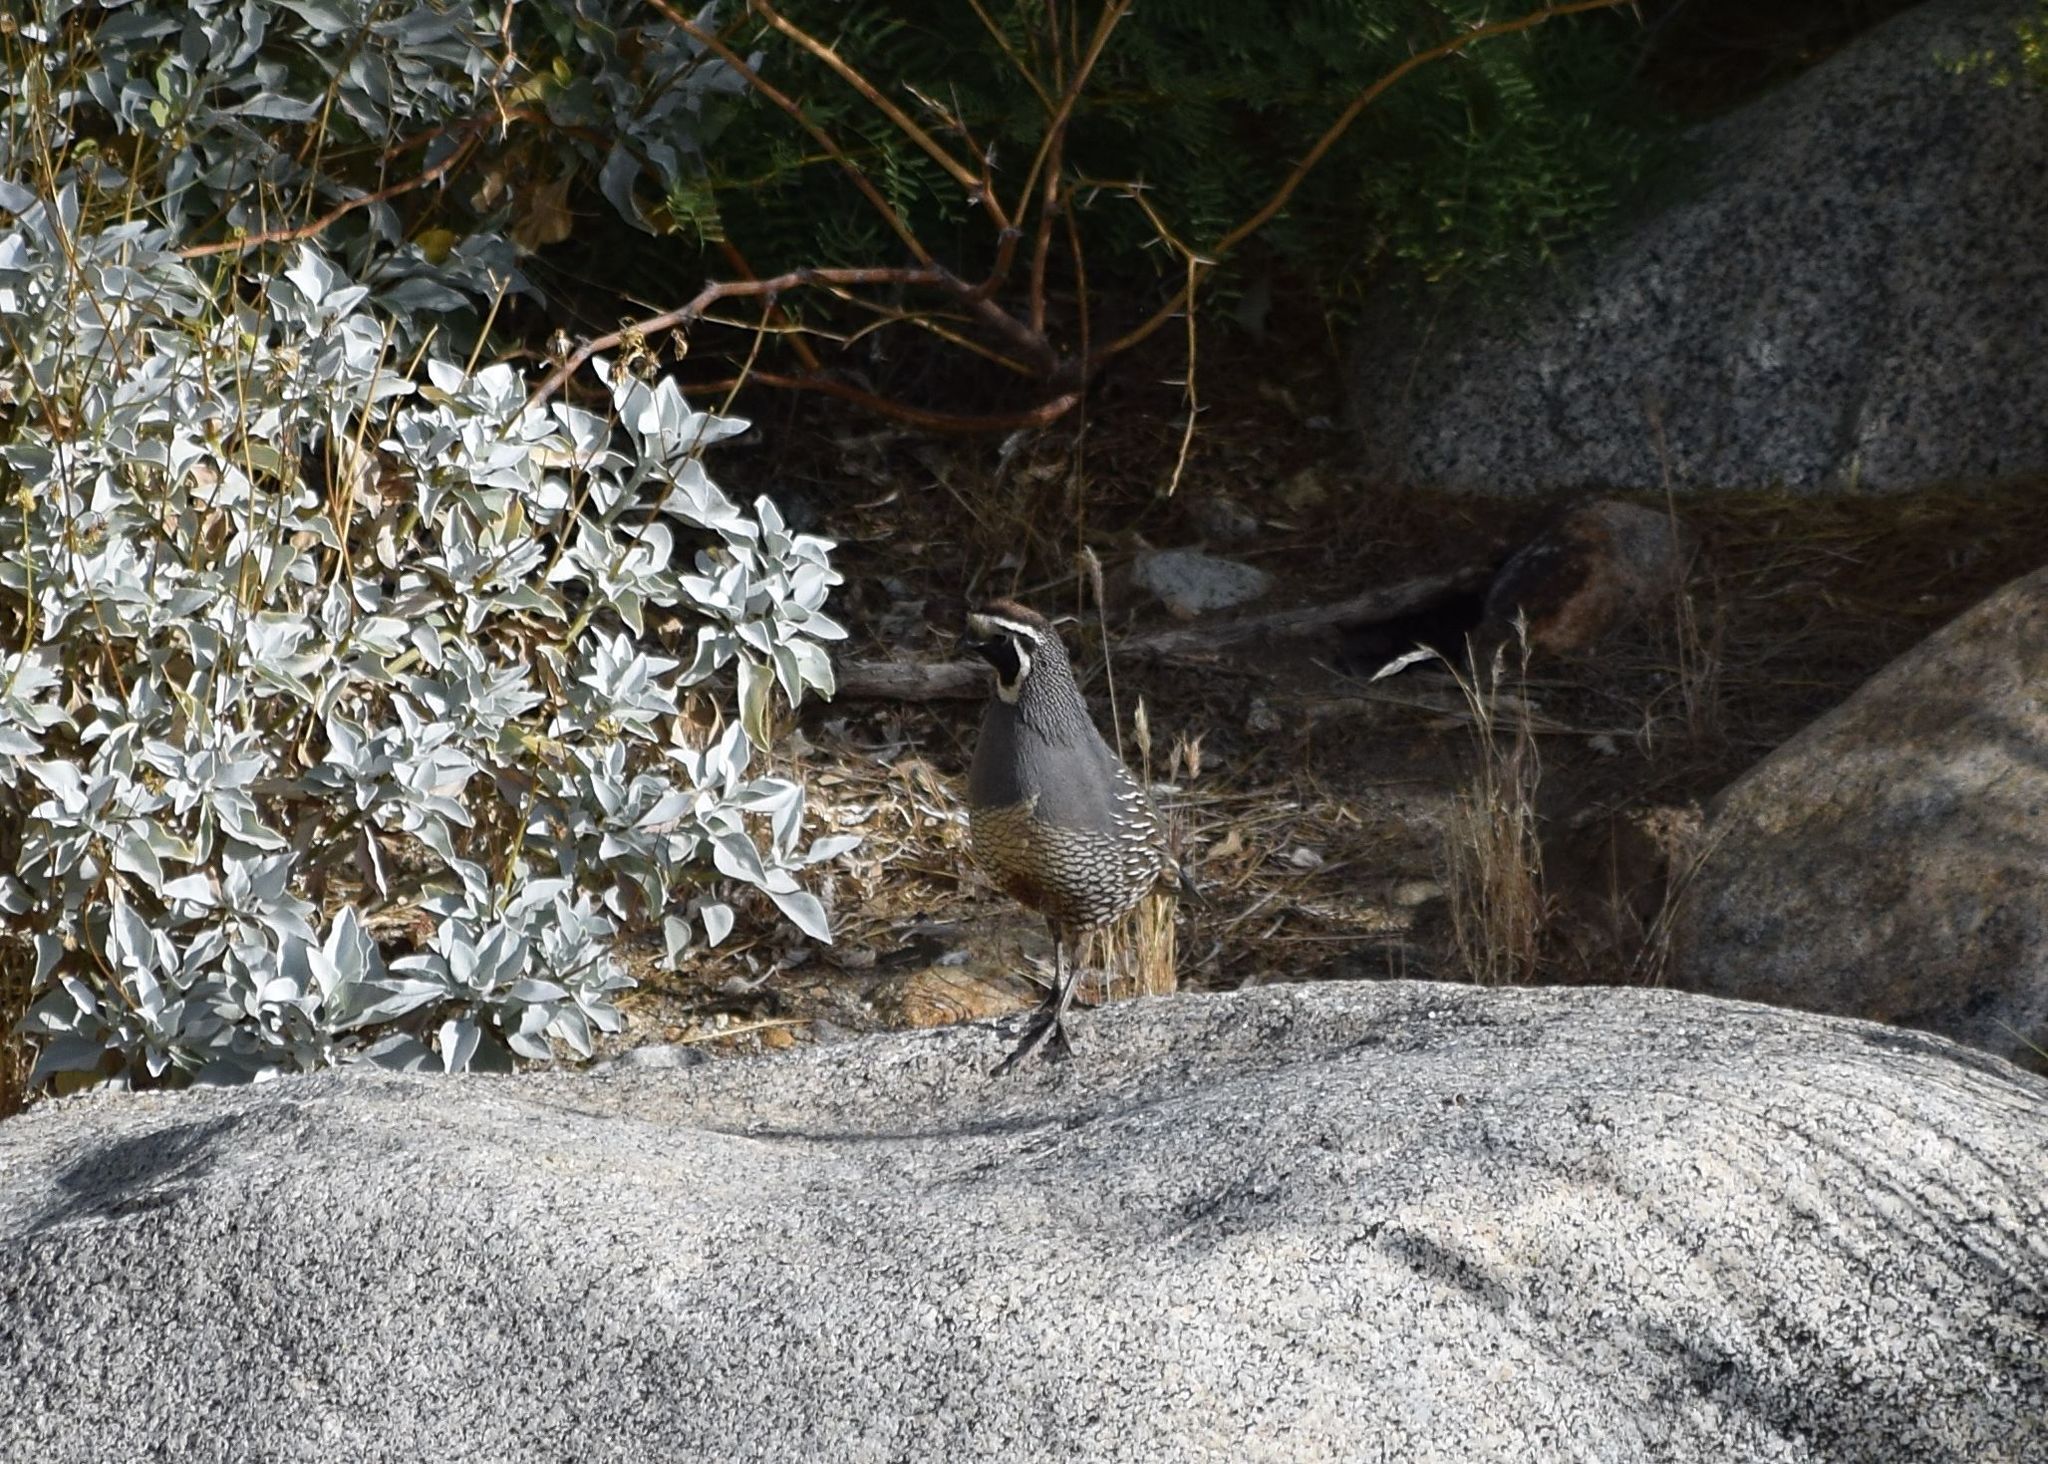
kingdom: Animalia
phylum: Chordata
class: Aves
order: Galliformes
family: Odontophoridae
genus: Callipepla
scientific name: Callipepla californica
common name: California quail
